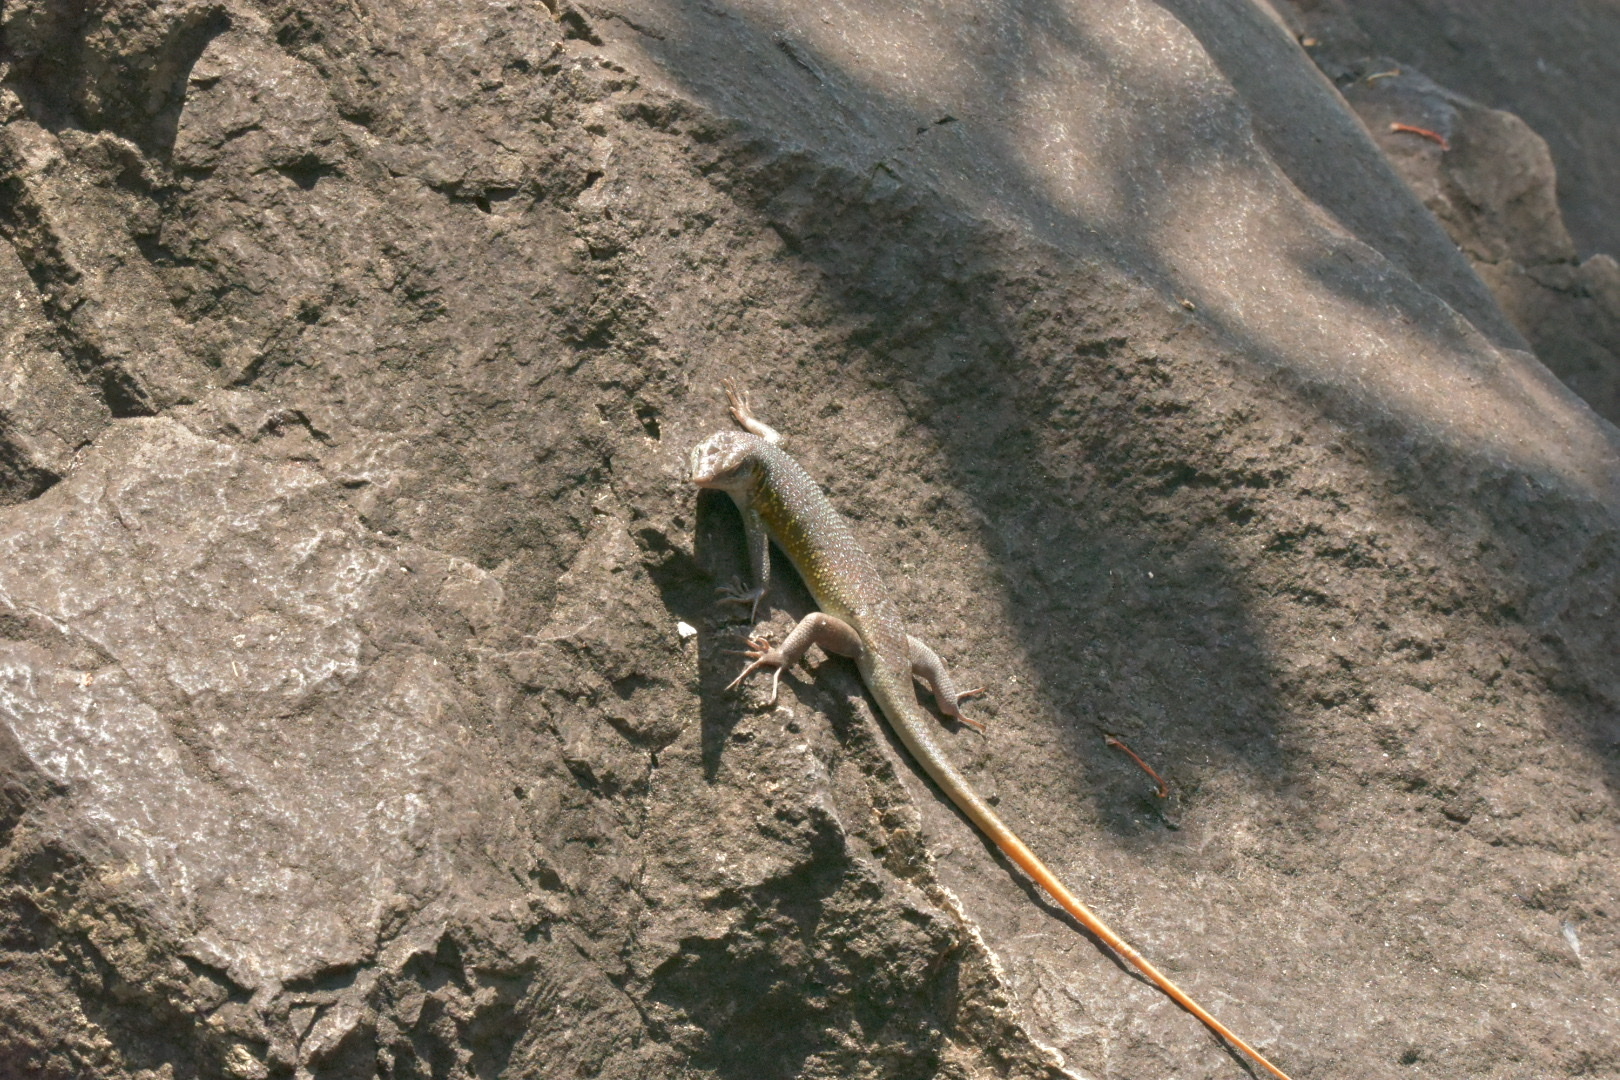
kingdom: Animalia
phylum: Chordata
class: Squamata
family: Scincidae
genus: Trachylepis
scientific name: Trachylepis margaritifera
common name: Rainbow skink
